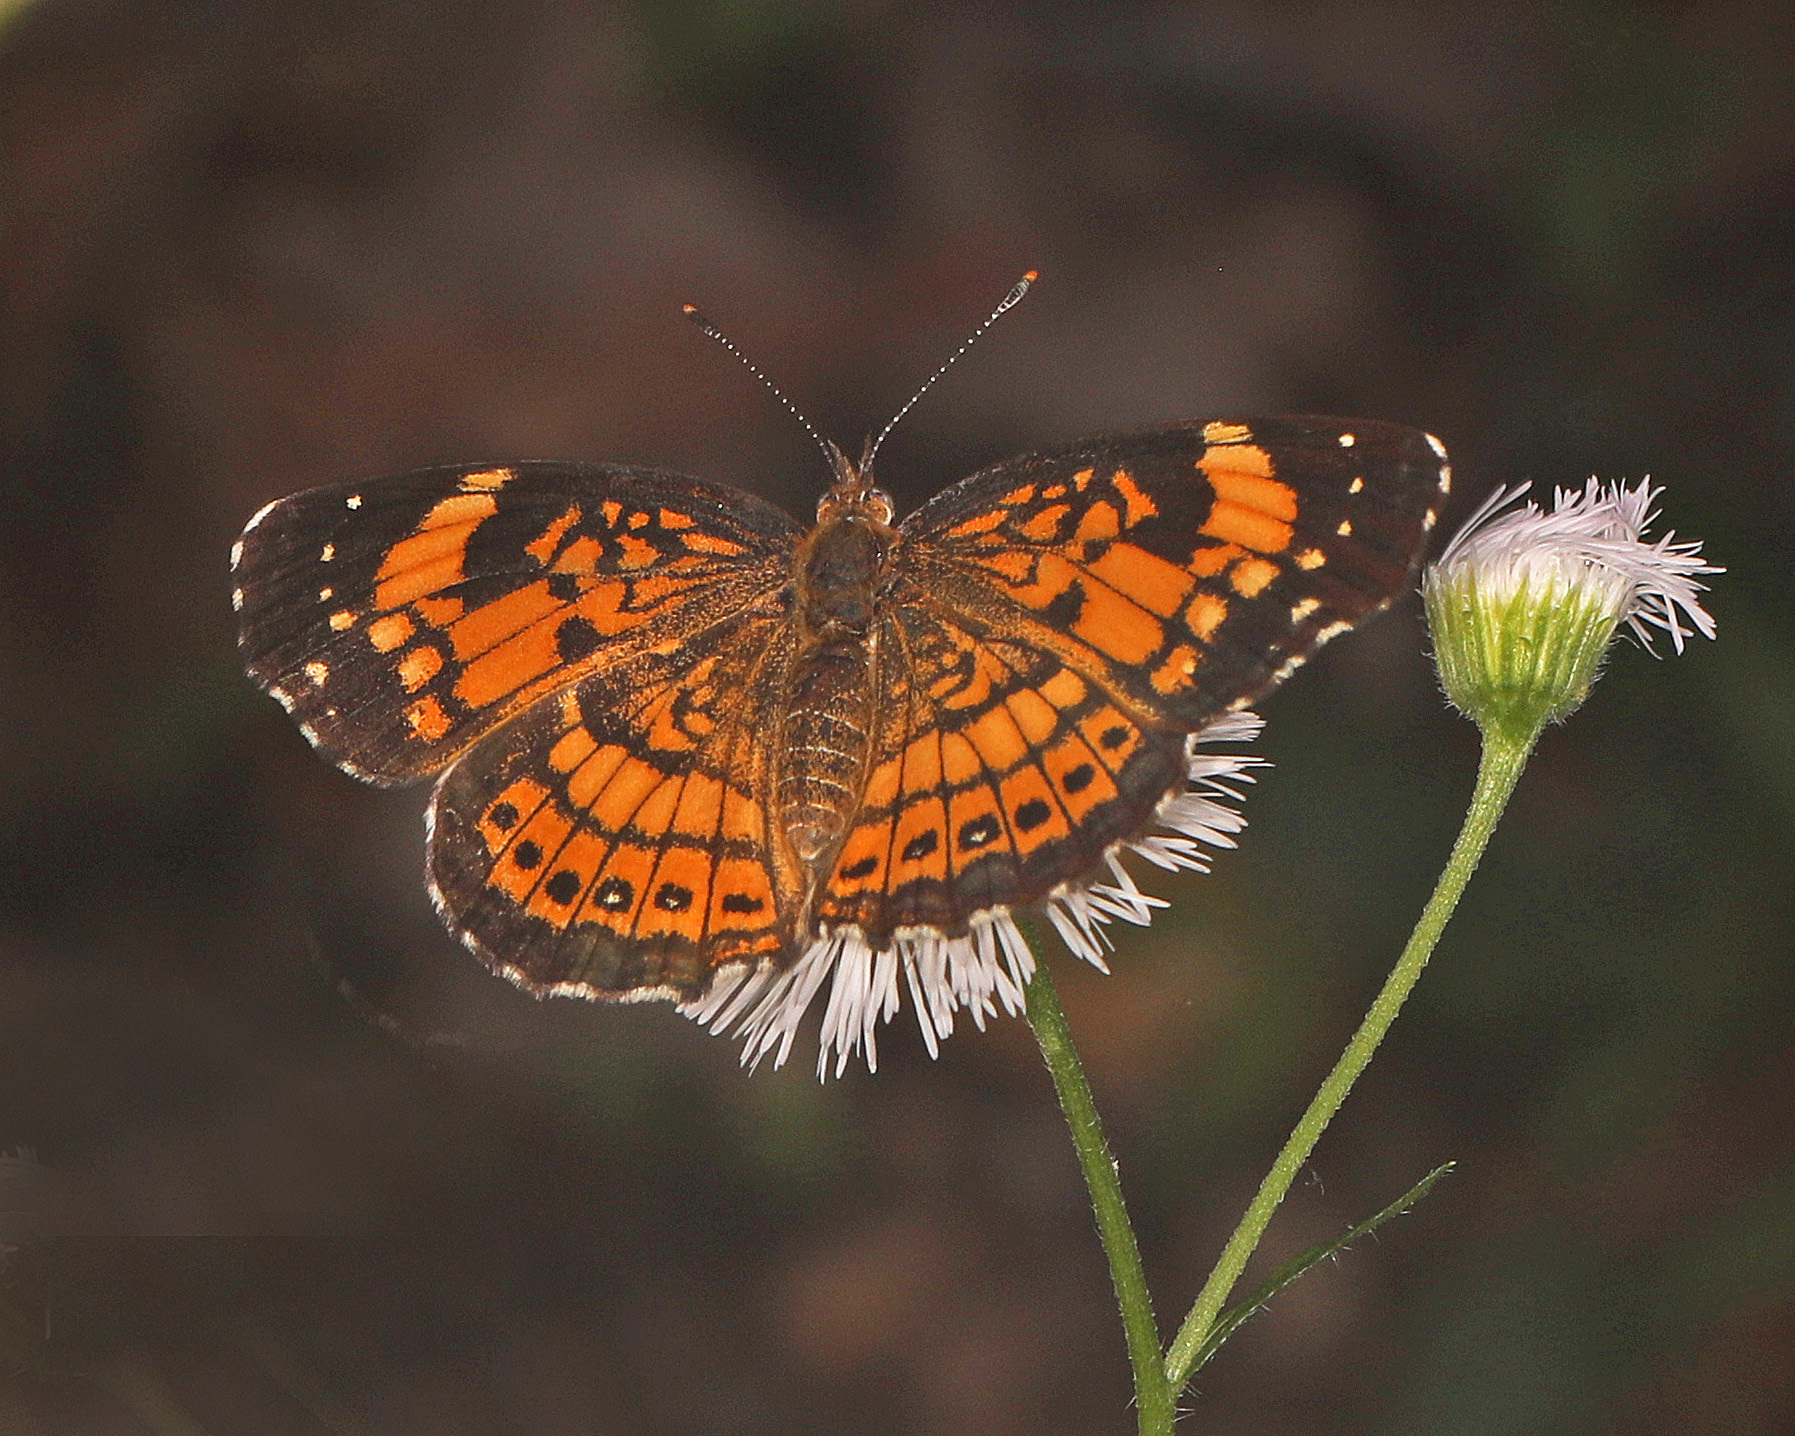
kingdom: Animalia
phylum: Arthropoda
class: Insecta
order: Lepidoptera
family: Nymphalidae
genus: Chlosyne
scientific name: Chlosyne nycteis
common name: Silvery checkerspot
